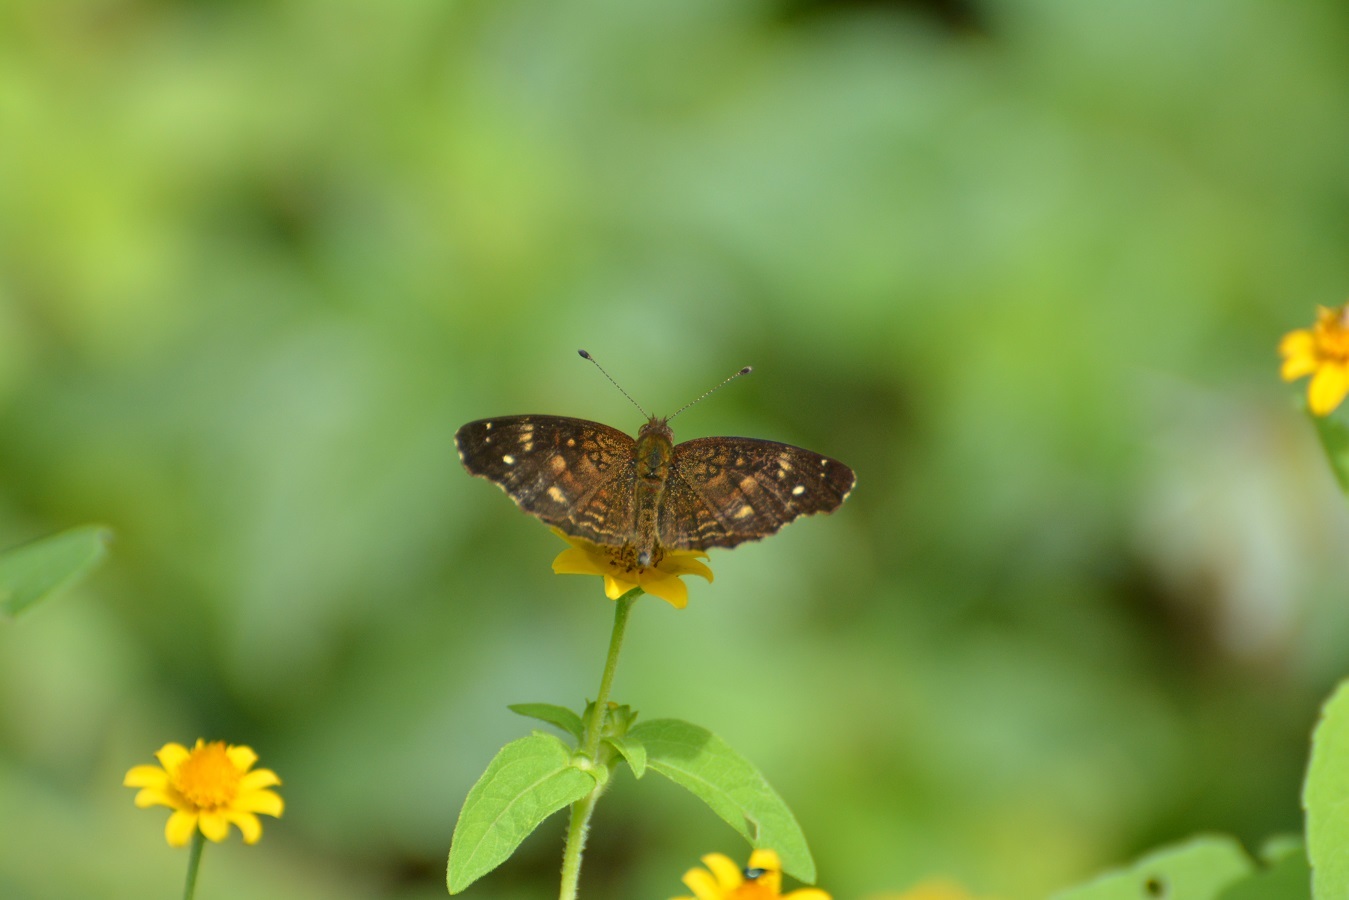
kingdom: Animalia
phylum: Arthropoda
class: Insecta
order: Lepidoptera
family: Nymphalidae
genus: Anthanassa
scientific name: Anthanassa atronia
